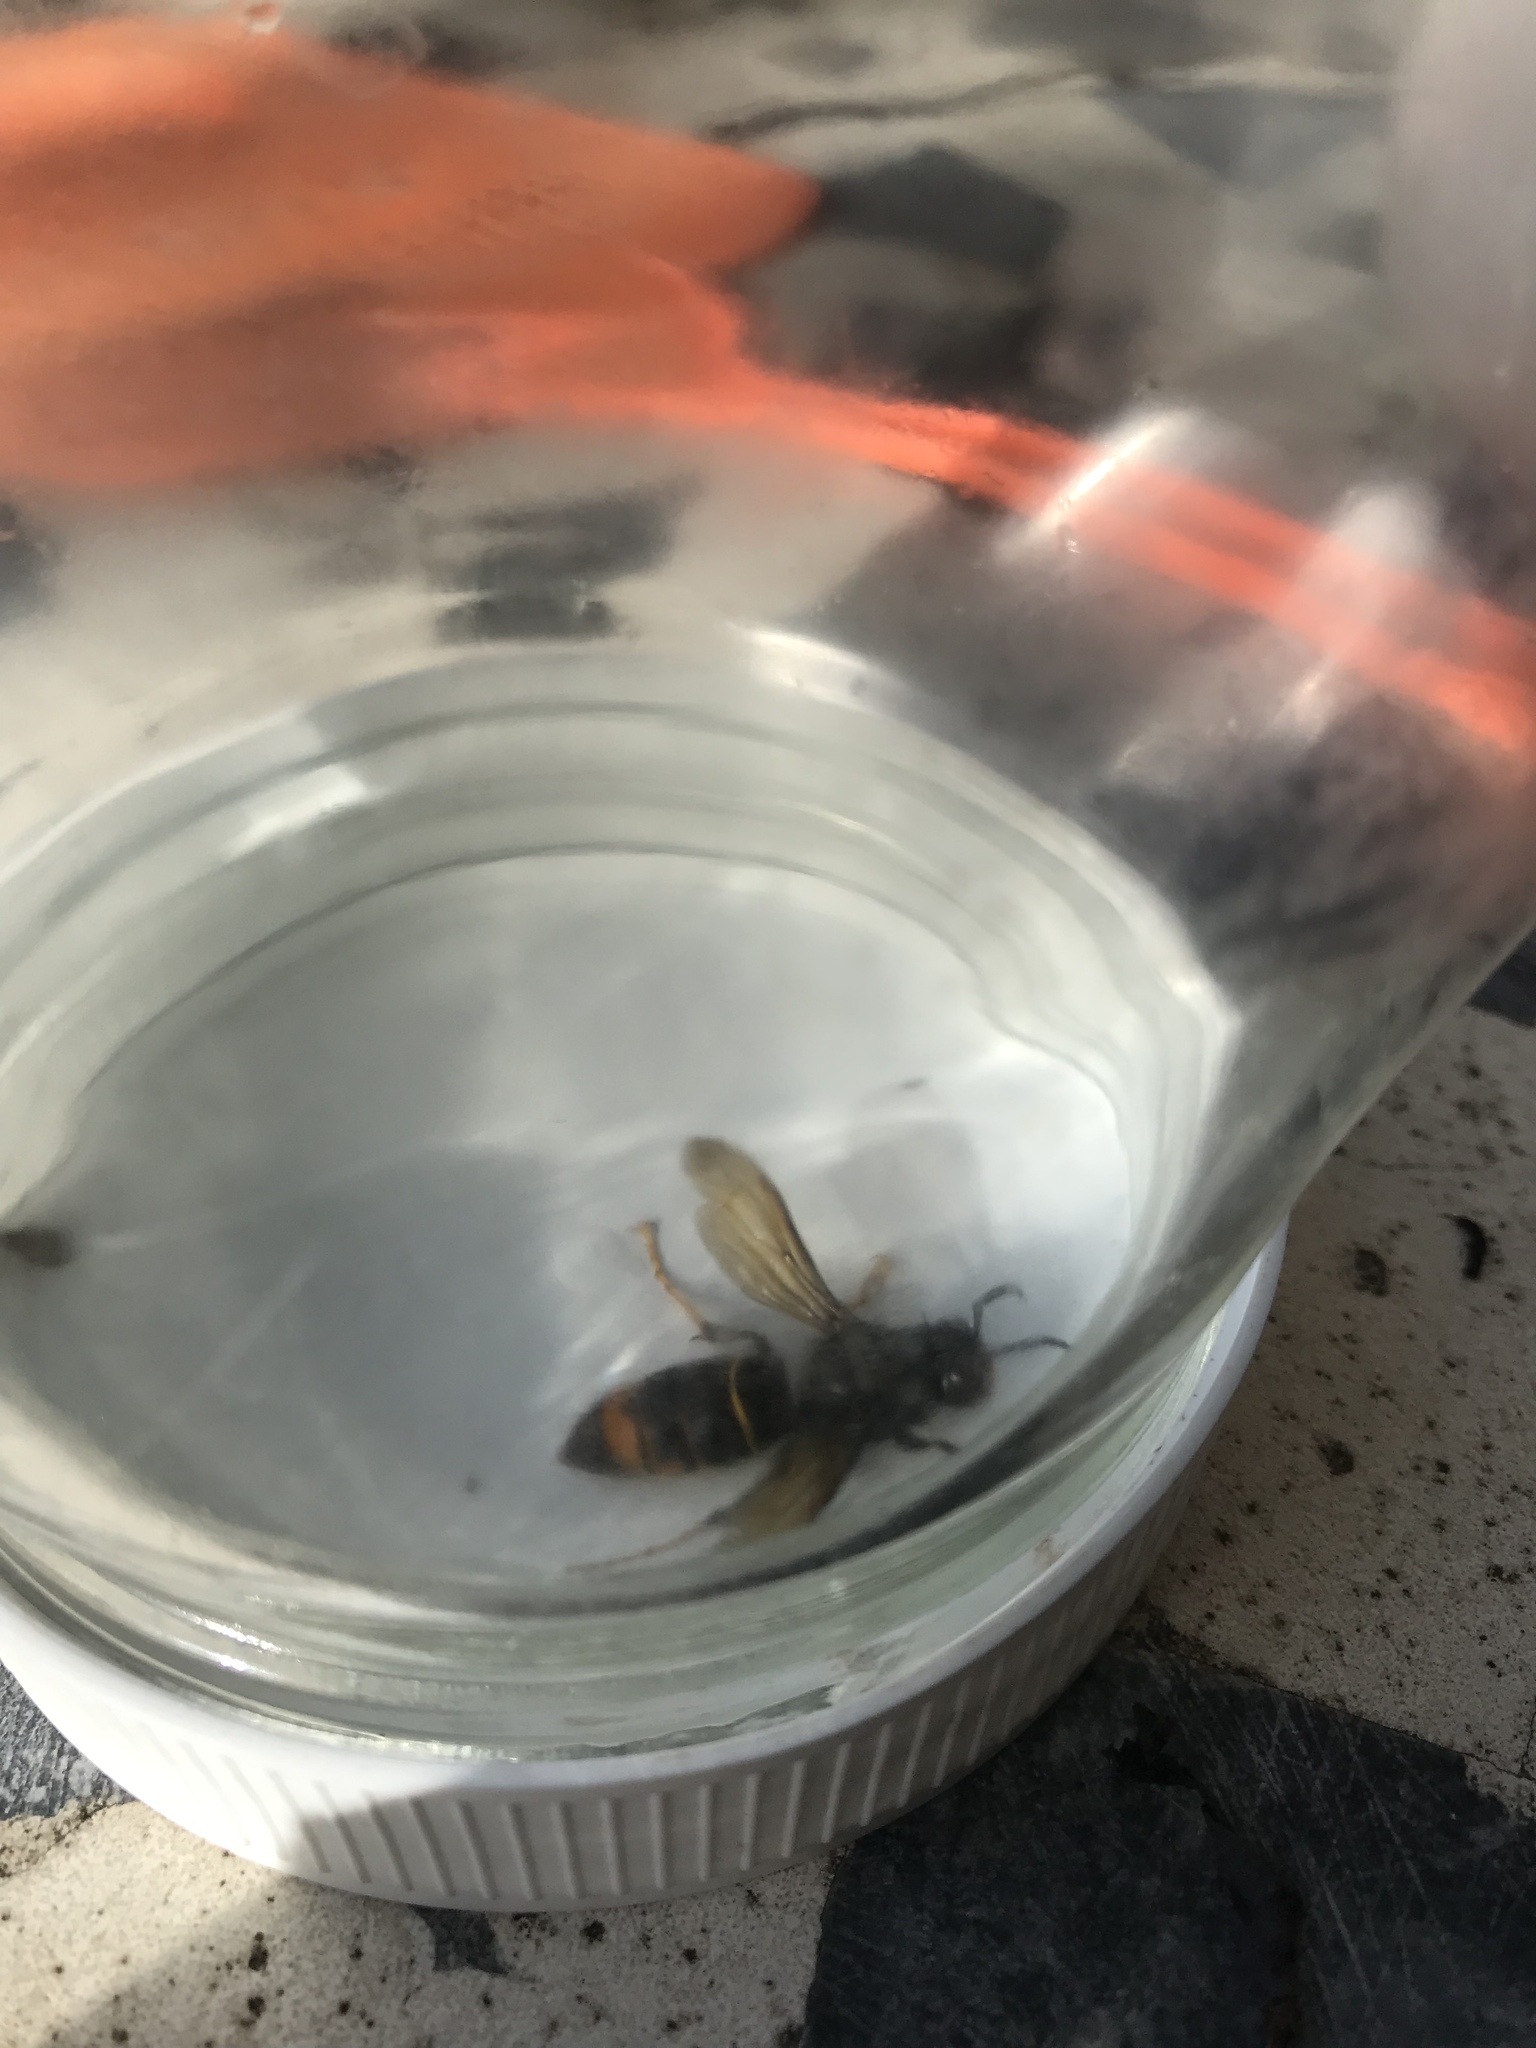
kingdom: Animalia
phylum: Arthropoda
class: Insecta
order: Hymenoptera
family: Vespidae
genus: Vespa
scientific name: Vespa velutina
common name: Asian hornet
